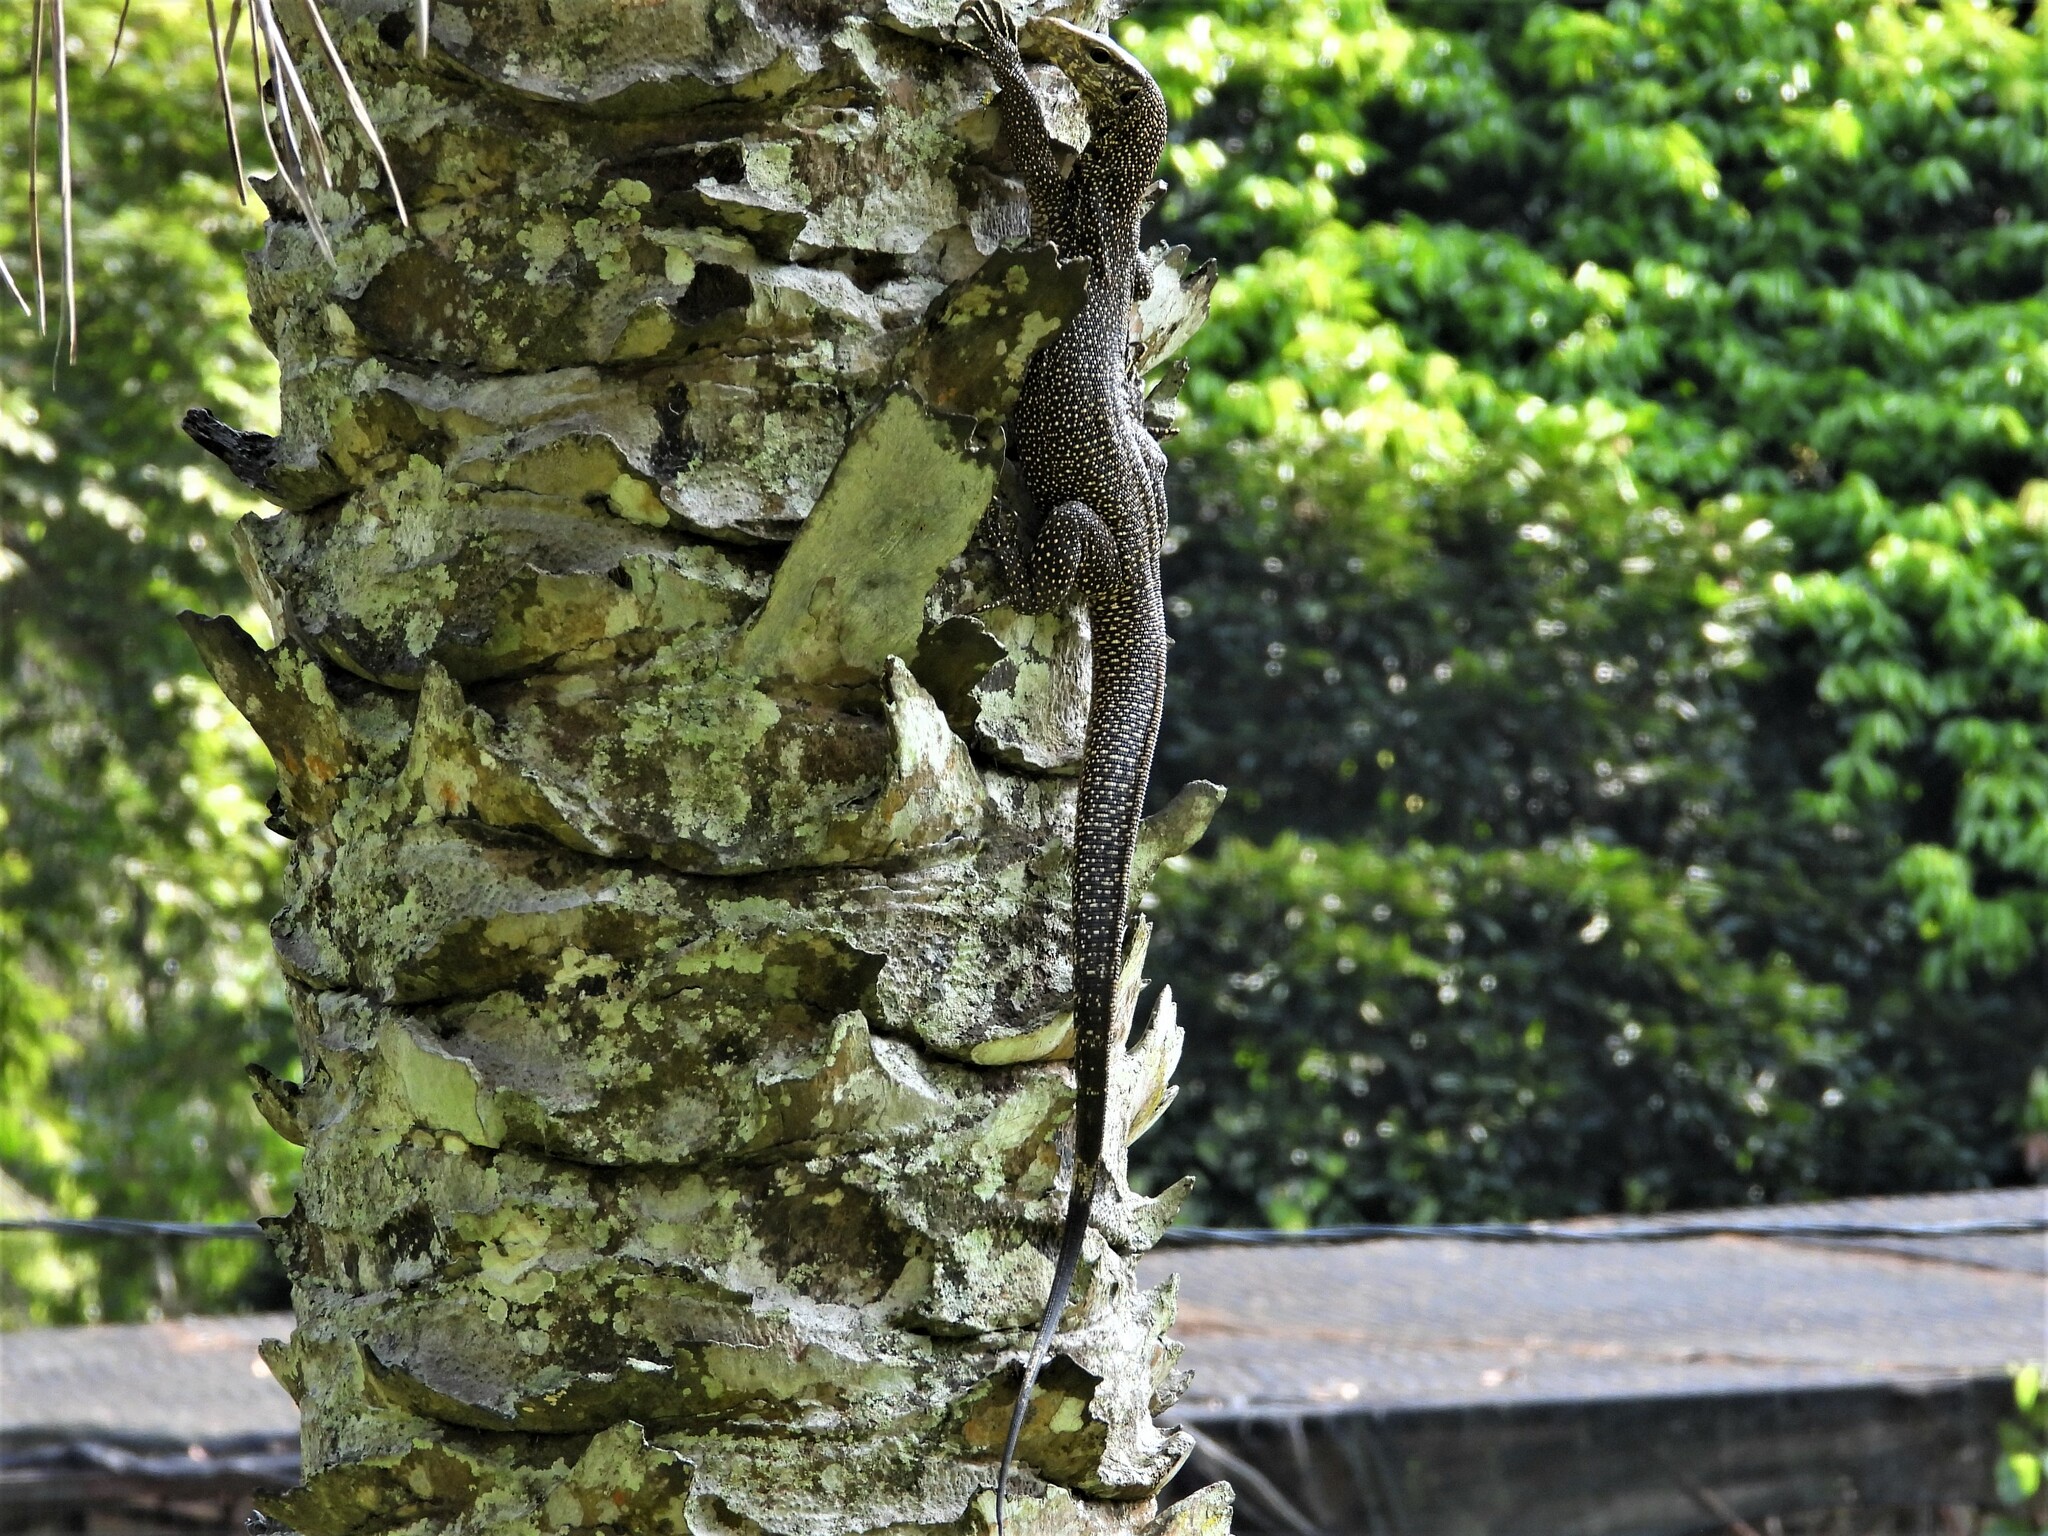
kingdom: Animalia
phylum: Chordata
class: Squamata
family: Varanidae
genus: Varanus
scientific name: Varanus nebulosus
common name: Clouded monitor
